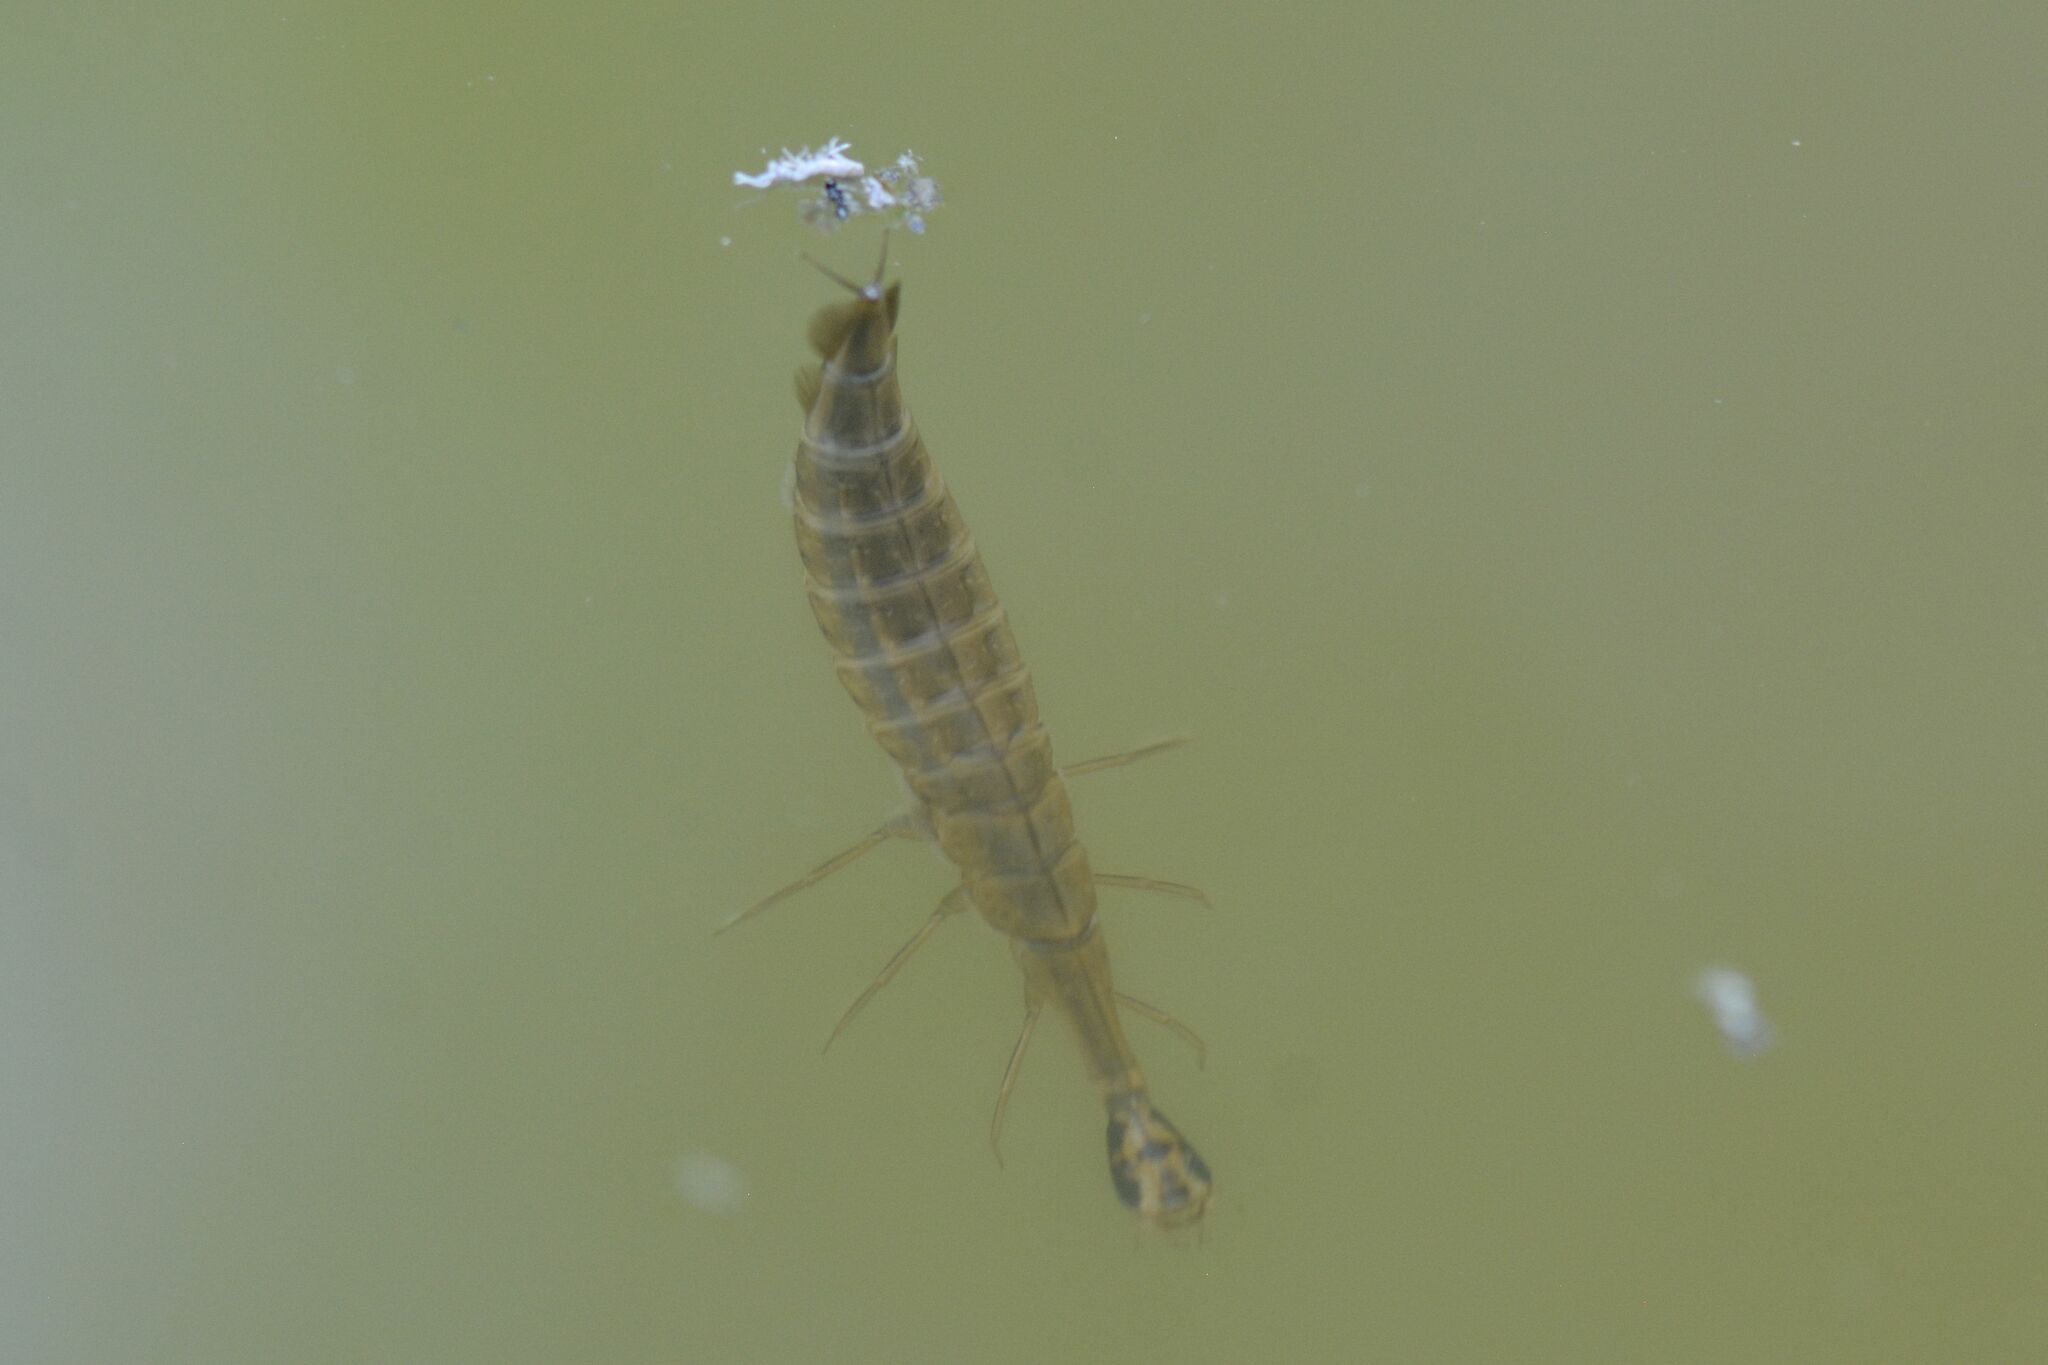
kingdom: Animalia
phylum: Arthropoda
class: Insecta
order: Coleoptera
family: Dytiscidae
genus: Acilius
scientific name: Acilius sulcatus
